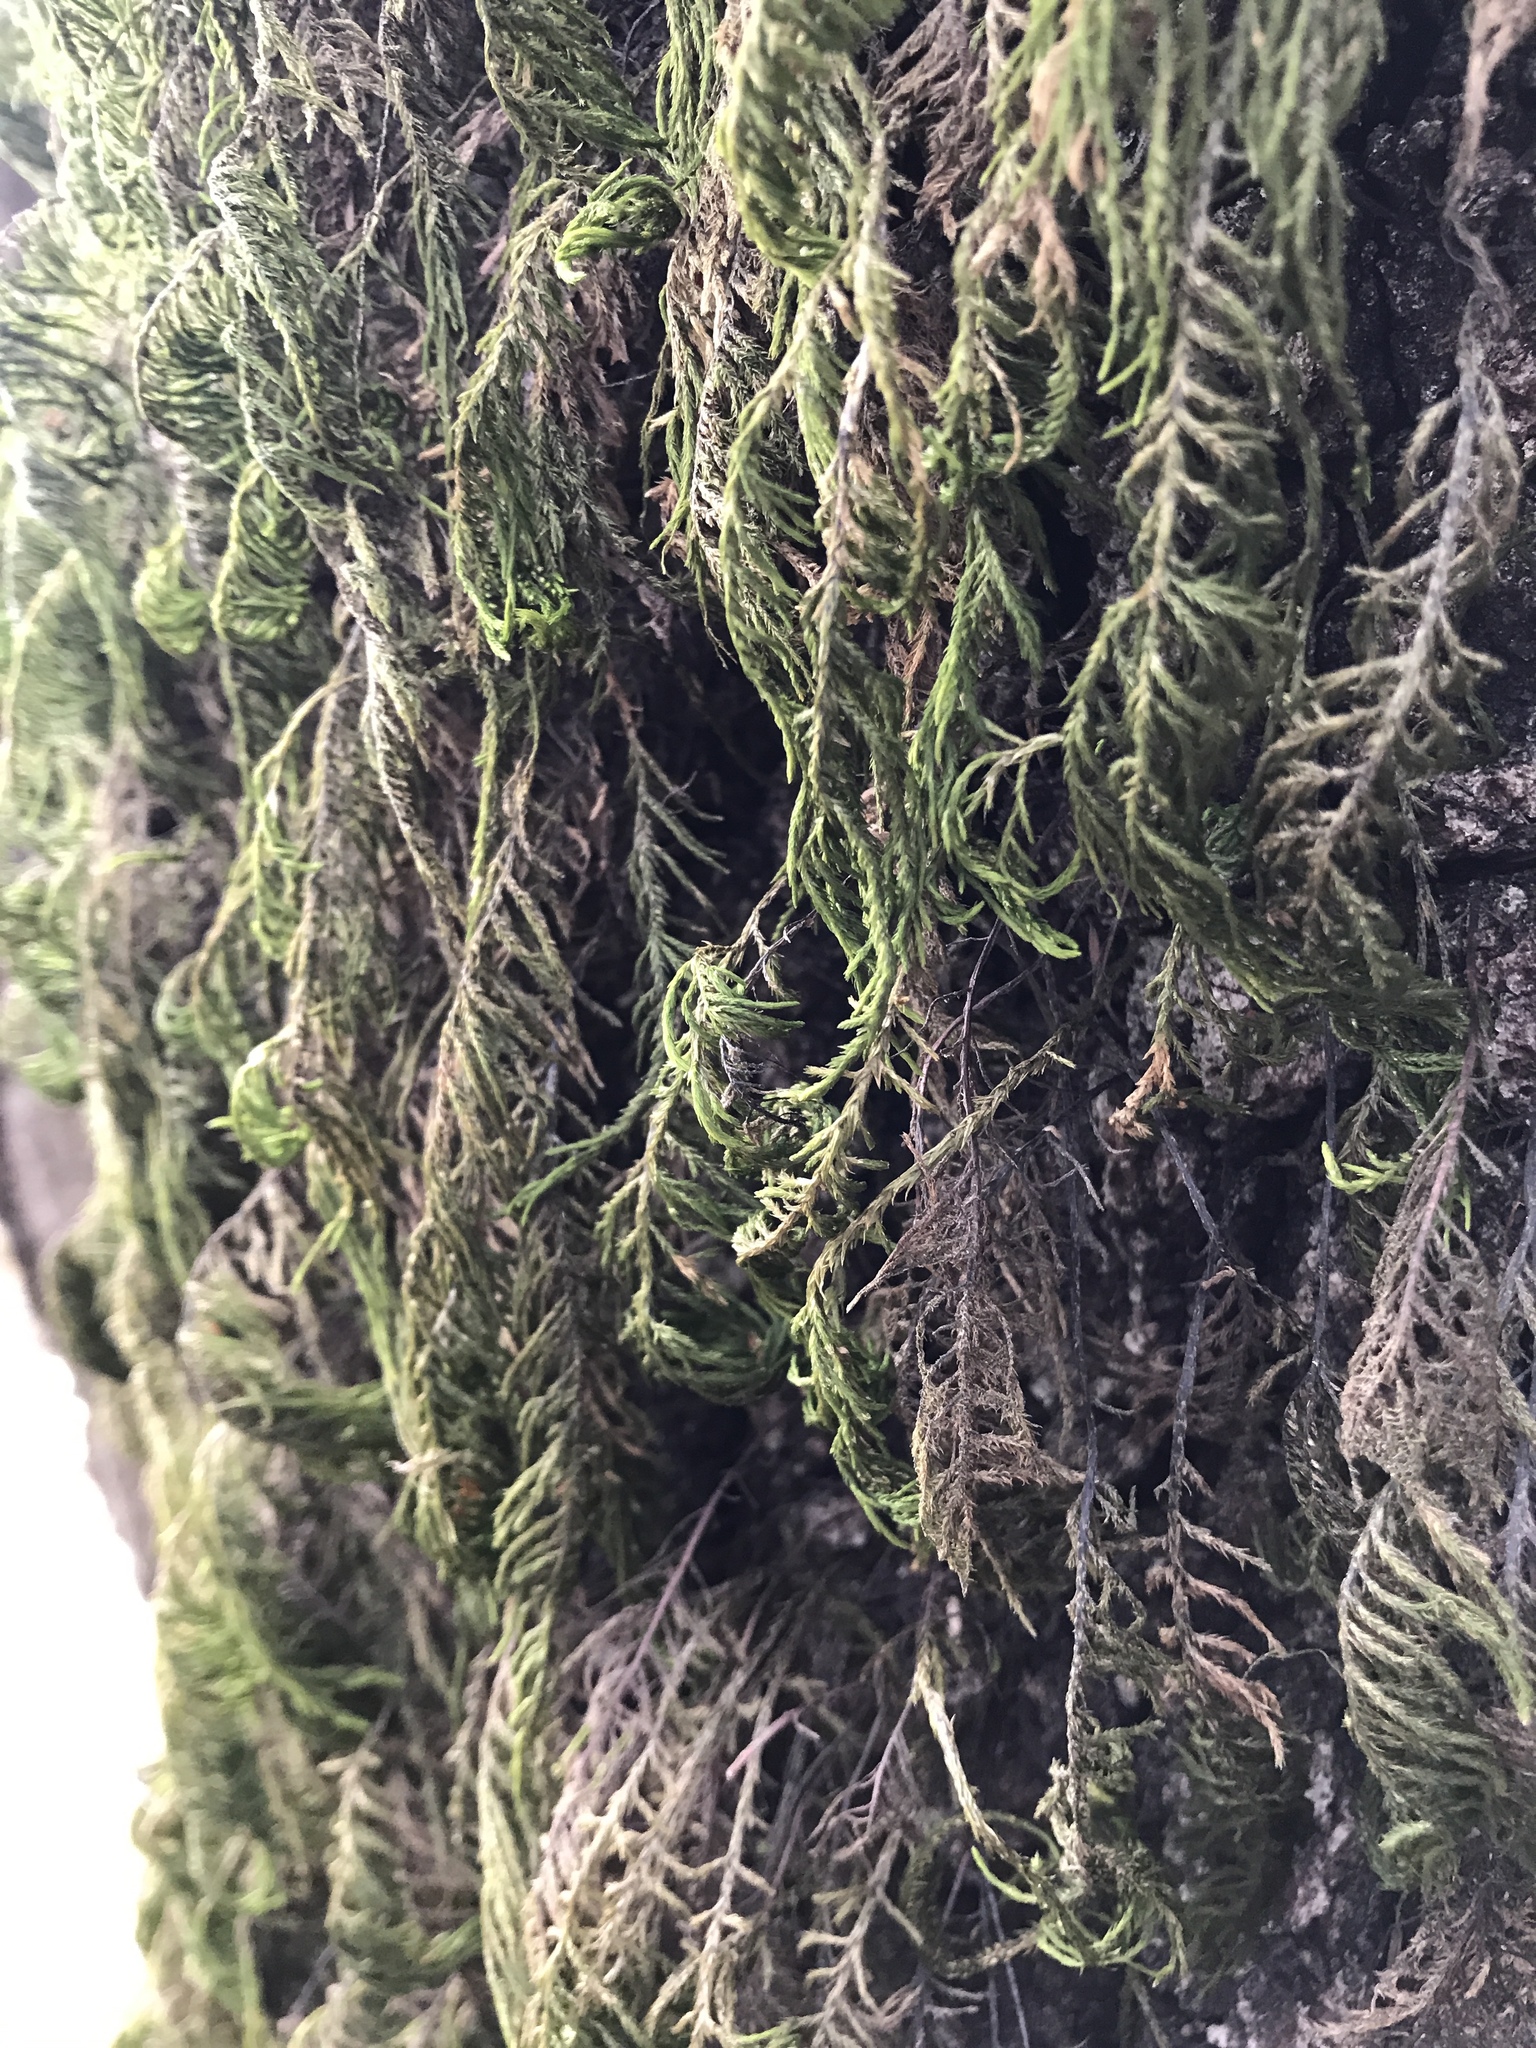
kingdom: Plantae
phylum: Bryophyta
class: Bryopsida
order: Hypnales
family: Cryphaeaceae
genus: Dendroalsia
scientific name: Dendroalsia abietina
